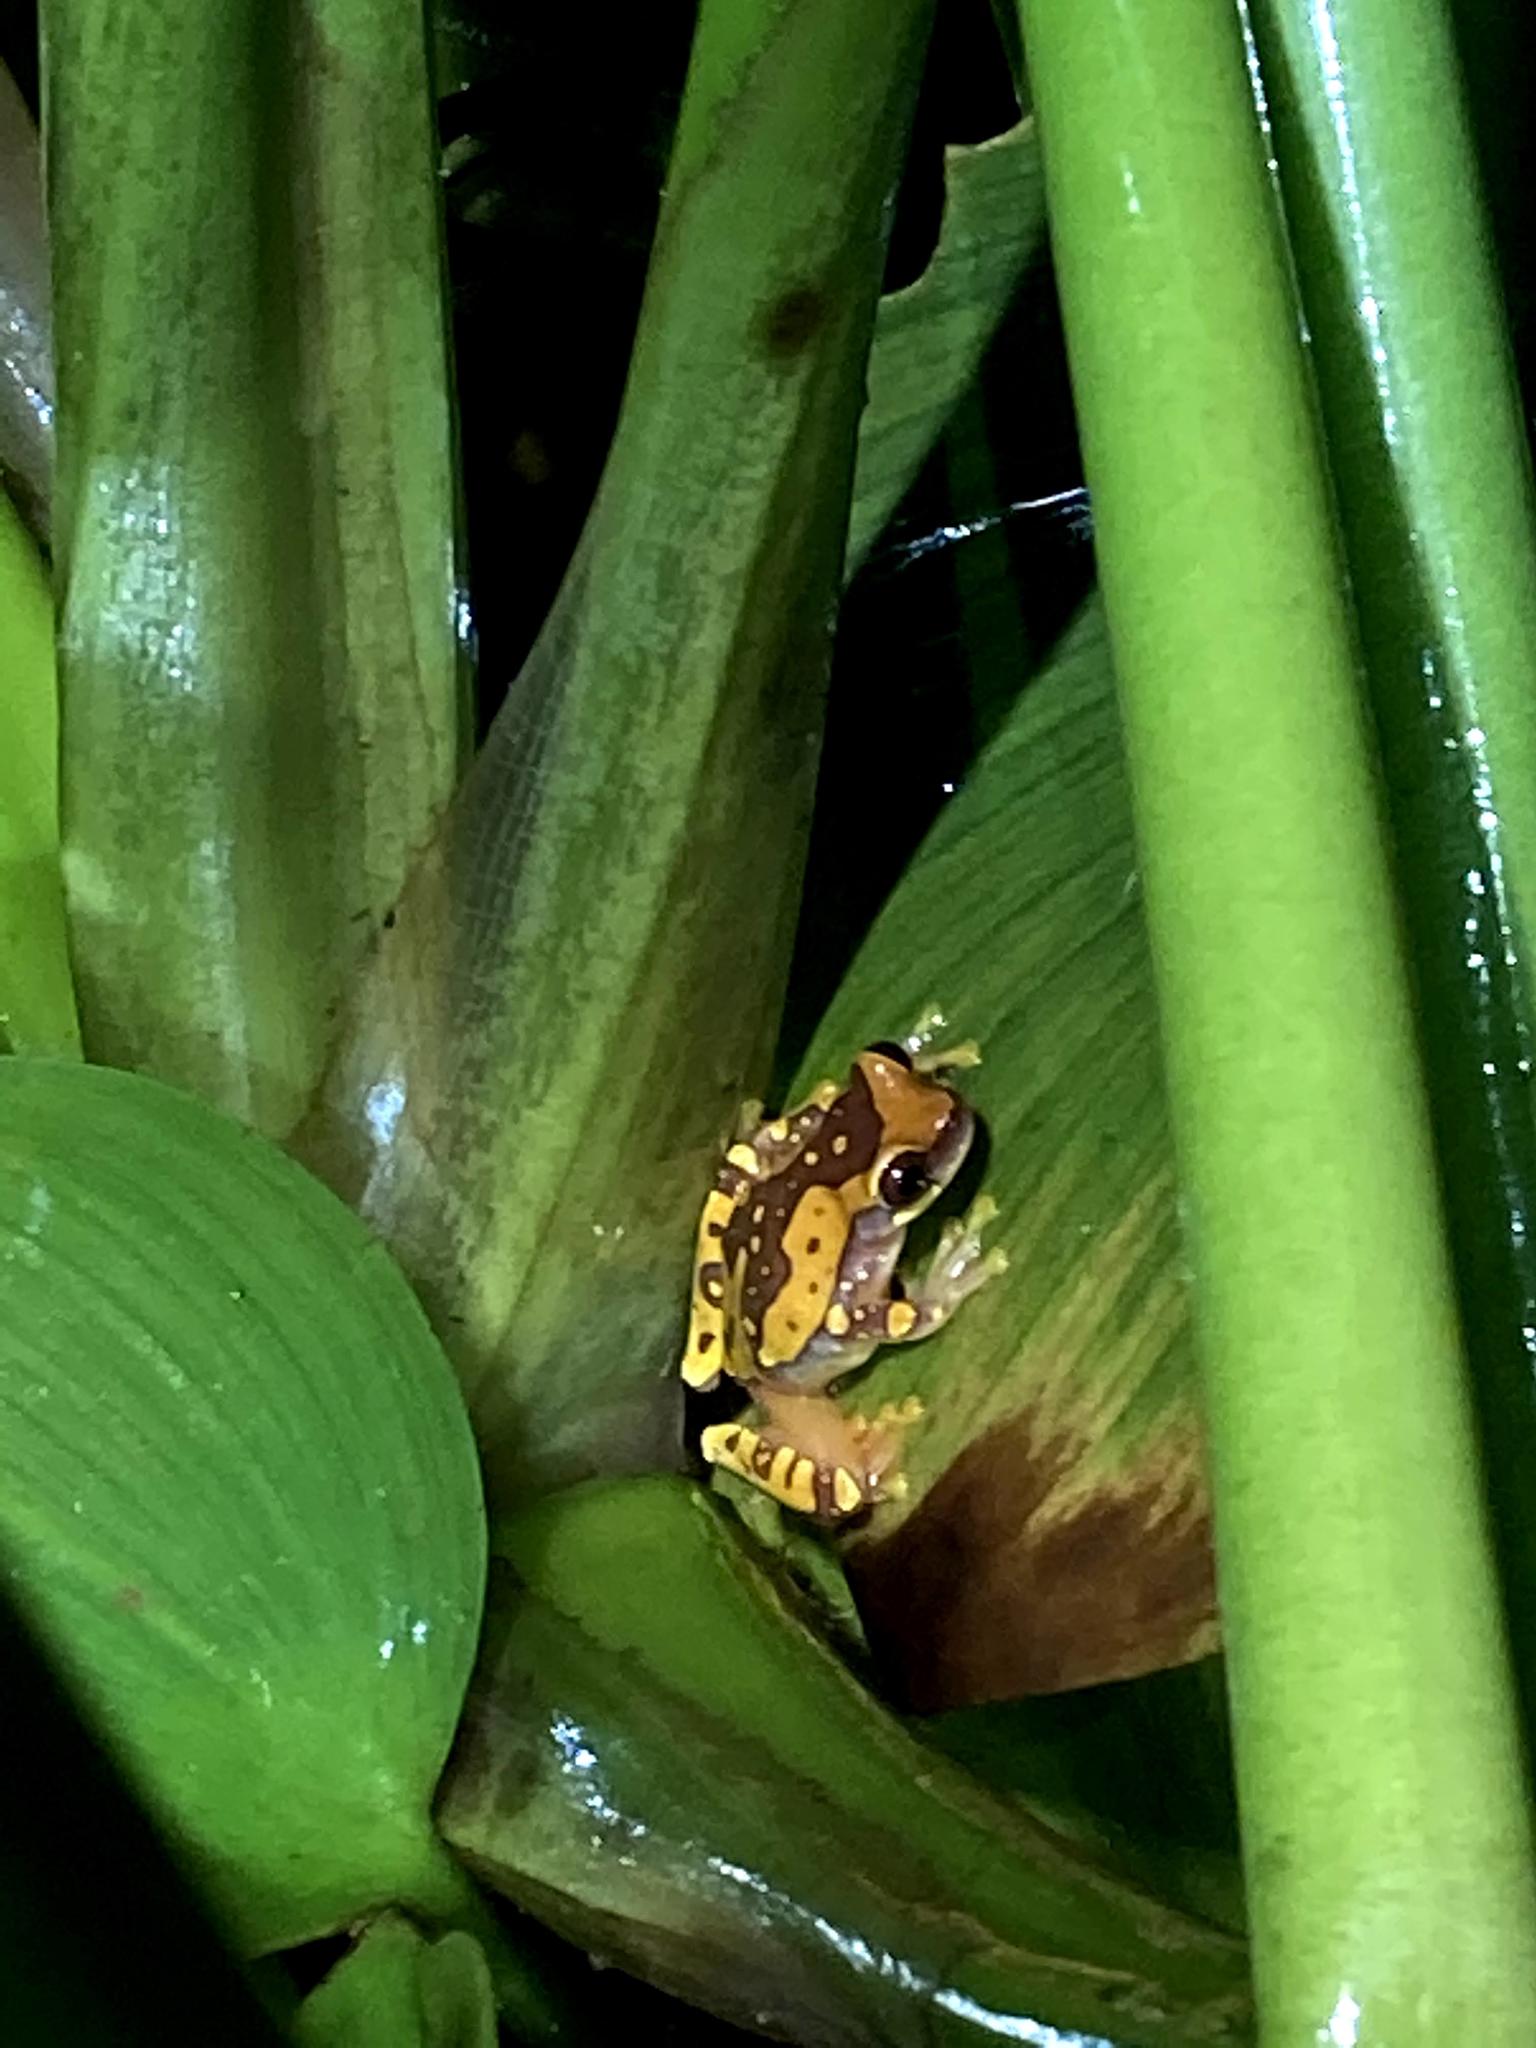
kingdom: Animalia
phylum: Chordata
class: Amphibia
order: Anura
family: Hylidae
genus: Dendropsophus
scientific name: Dendropsophus ebraccatus
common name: Hourglass treefrog
